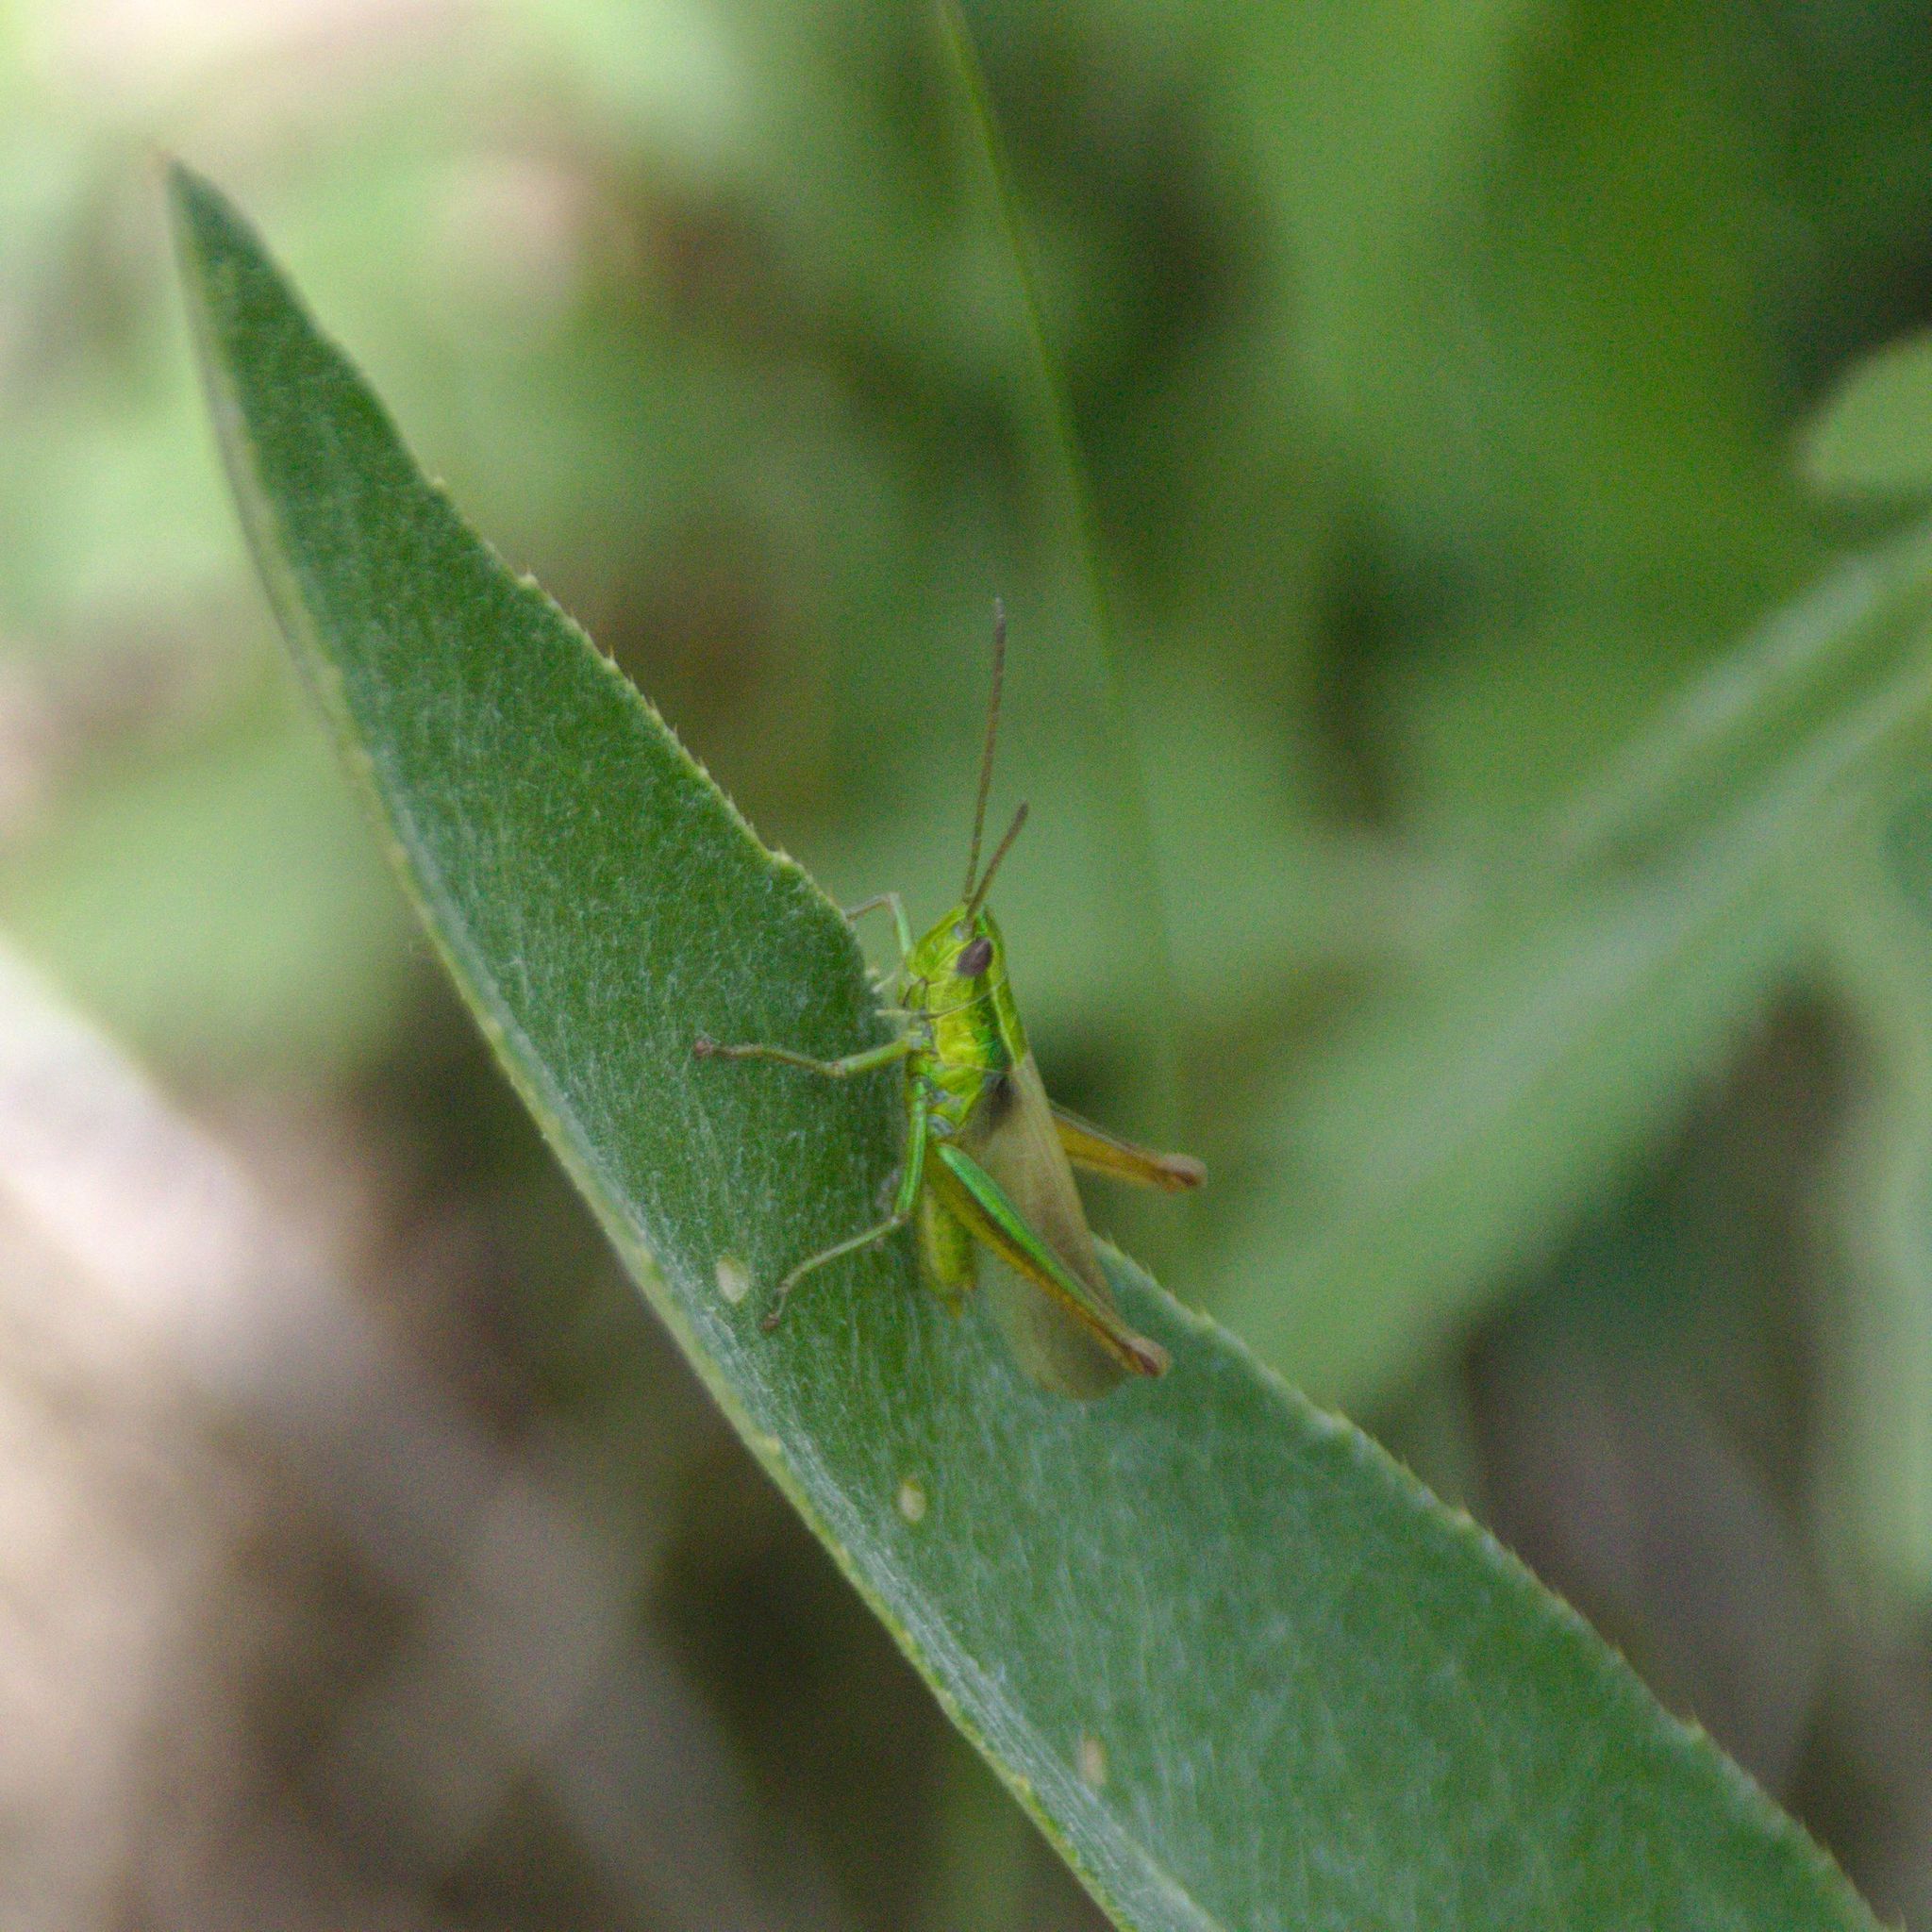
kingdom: Animalia
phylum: Arthropoda
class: Insecta
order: Orthoptera
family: Acrididae
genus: Euthystira
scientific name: Euthystira brachyptera
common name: Small gold grasshopper
